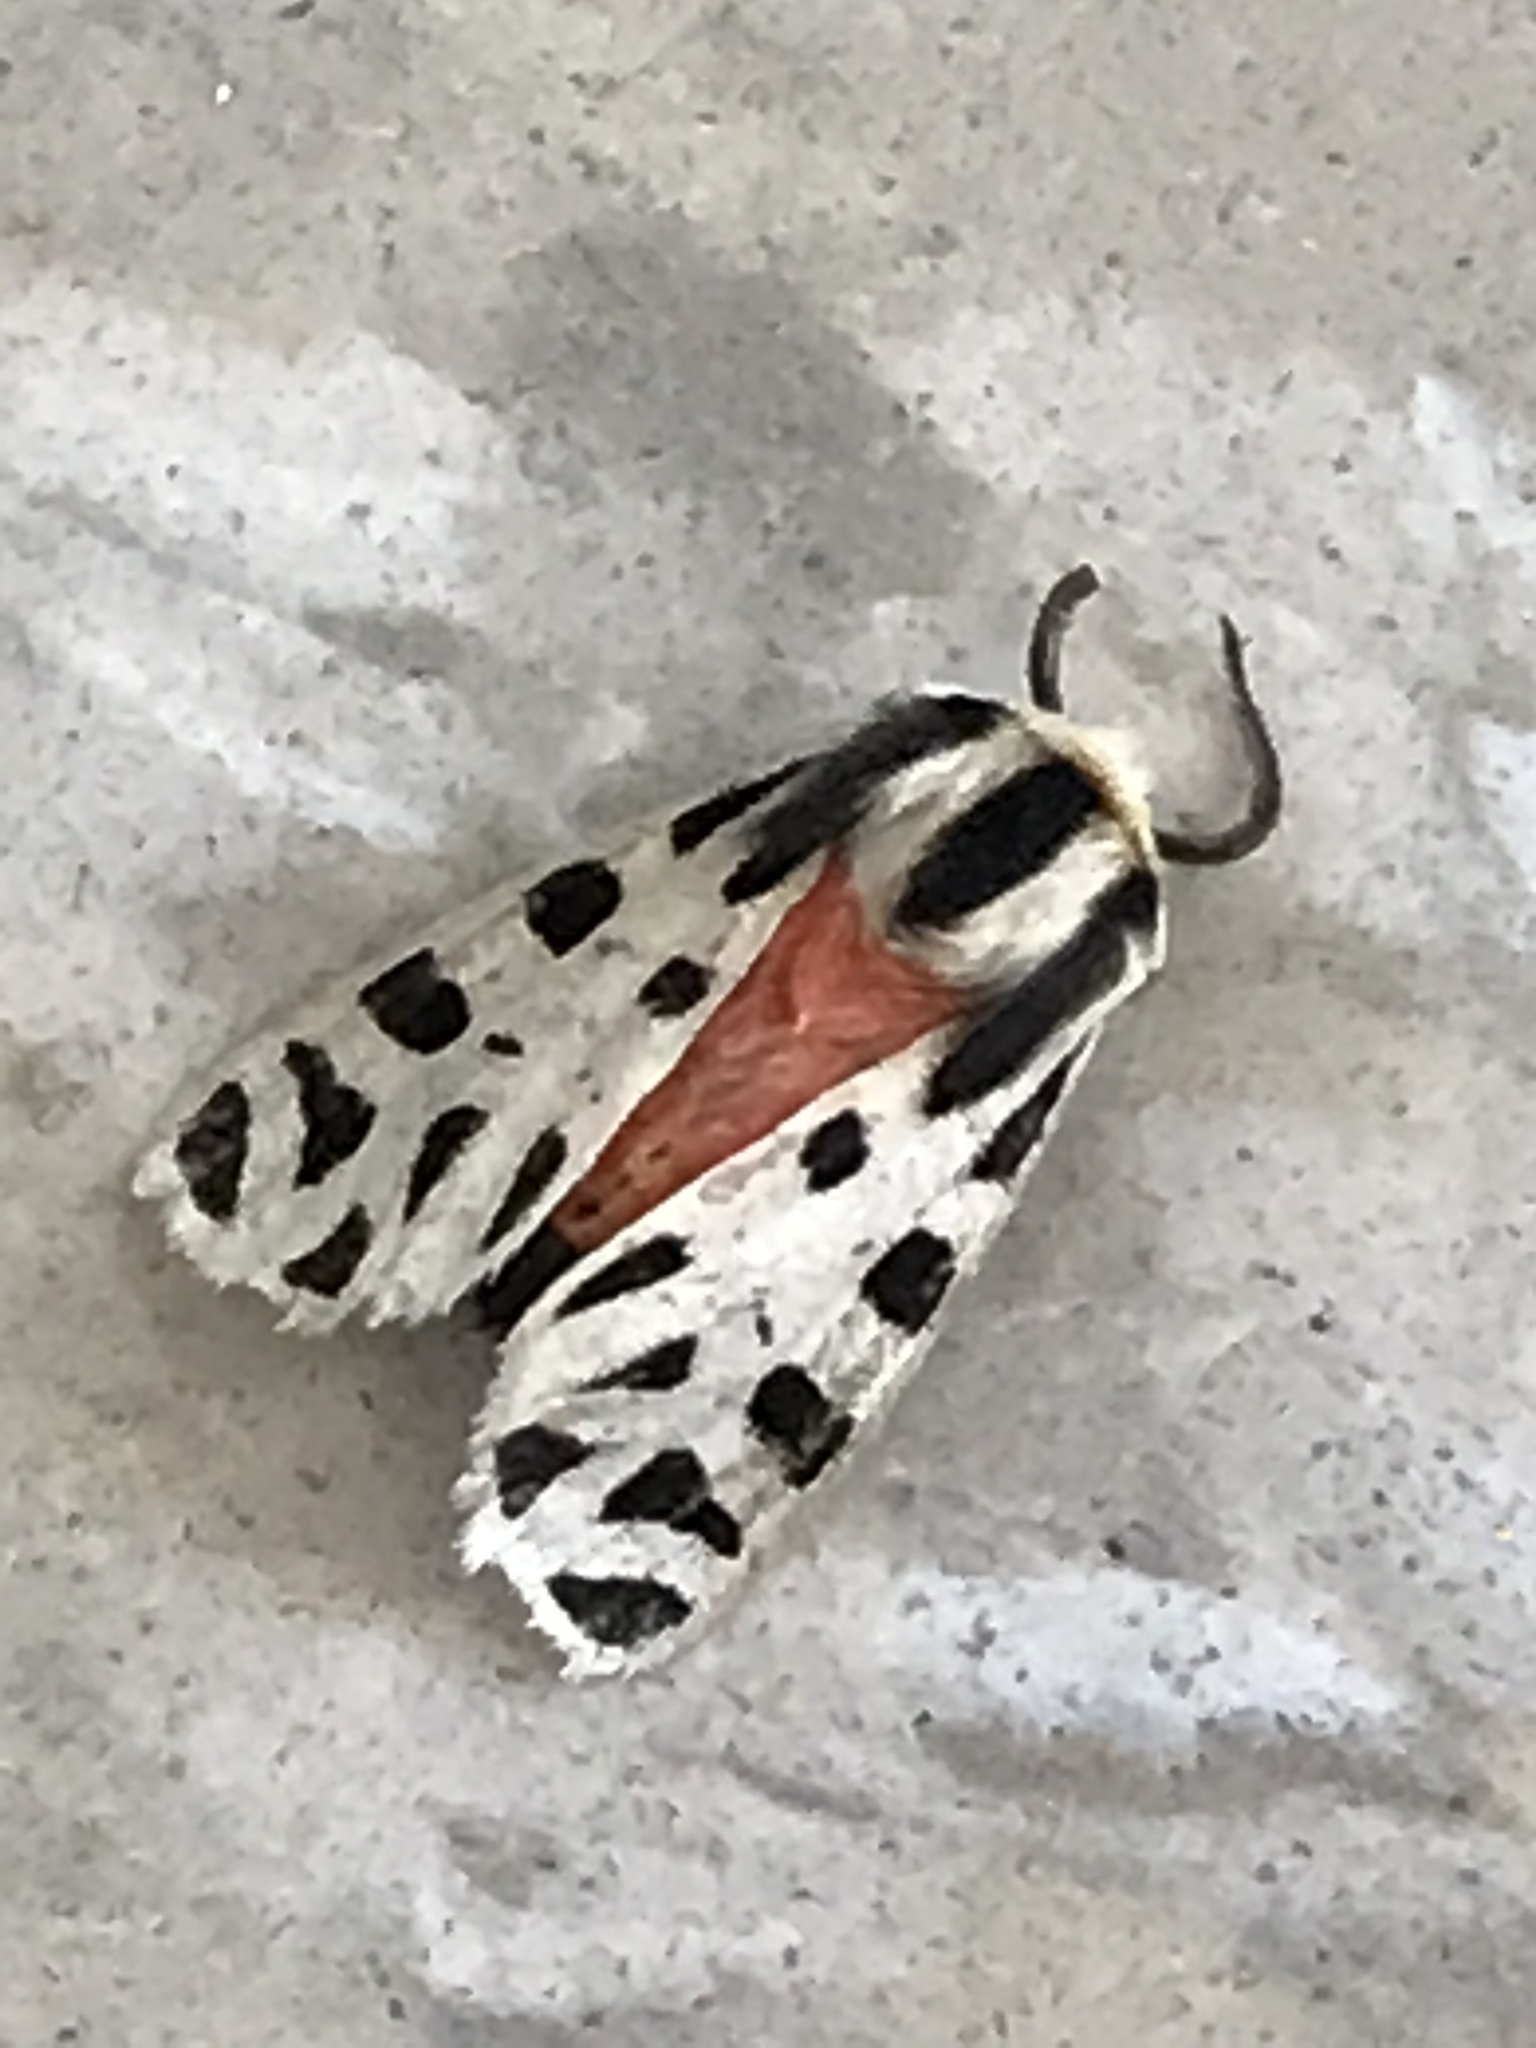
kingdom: Animalia
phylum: Arthropoda
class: Insecta
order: Lepidoptera
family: Erebidae
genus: Apantesis
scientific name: Apantesis
